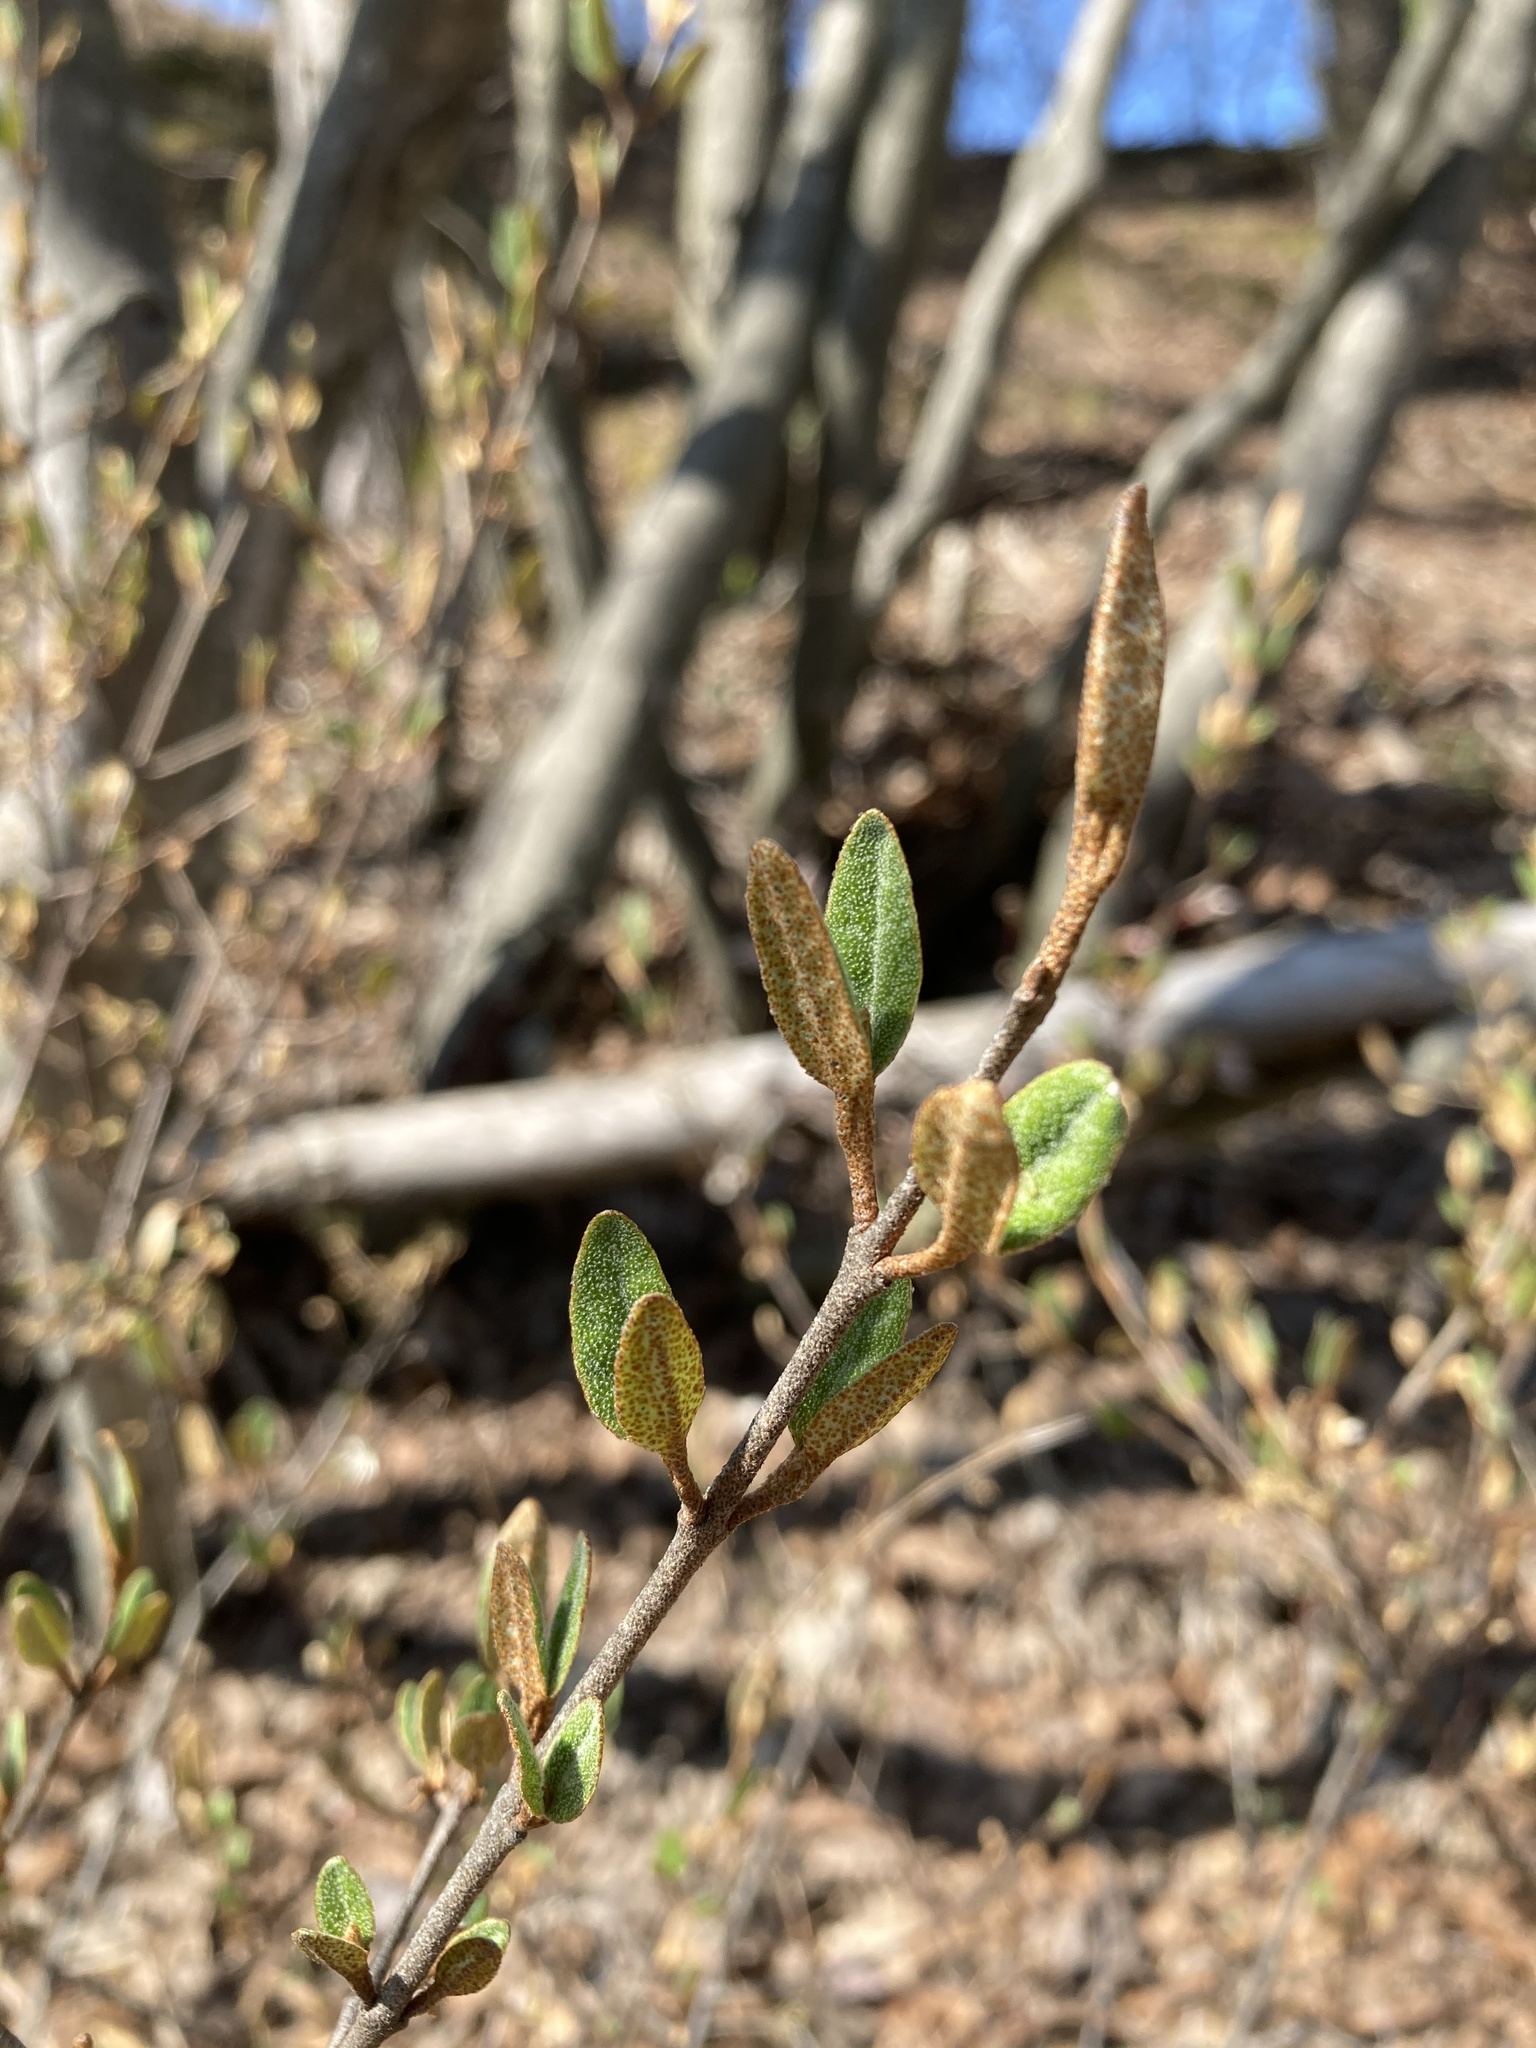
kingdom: Plantae
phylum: Tracheophyta
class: Magnoliopsida
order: Rosales
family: Elaeagnaceae
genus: Shepherdia
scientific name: Shepherdia canadensis
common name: Soapberry
